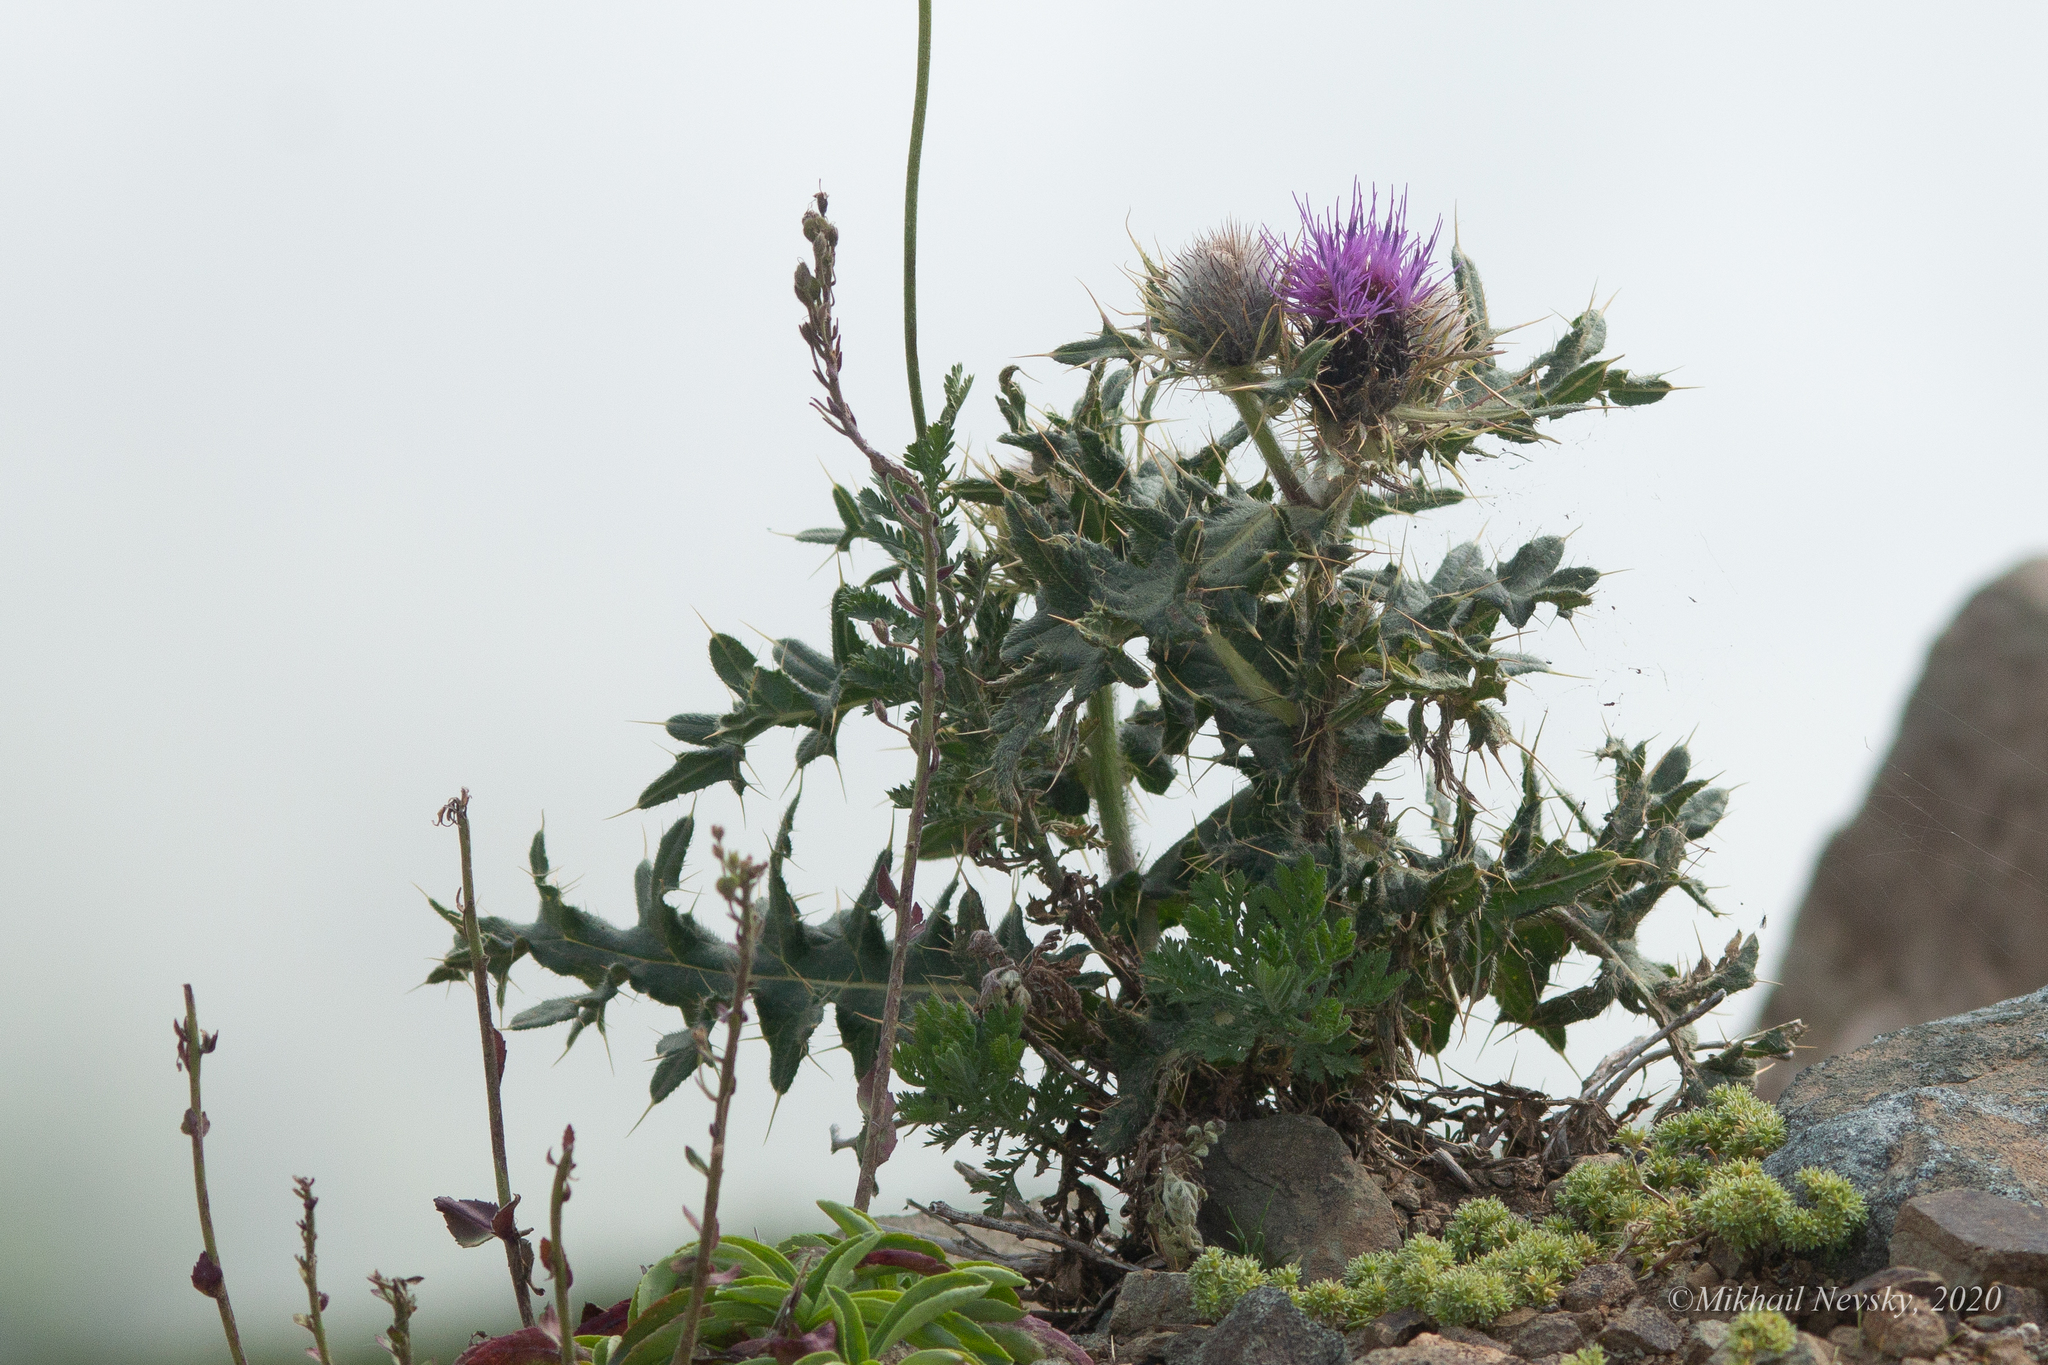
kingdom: Plantae
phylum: Tracheophyta
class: Magnoliopsida
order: Asterales
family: Asteraceae
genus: Lophiolepis
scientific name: Lophiolepis horrida
